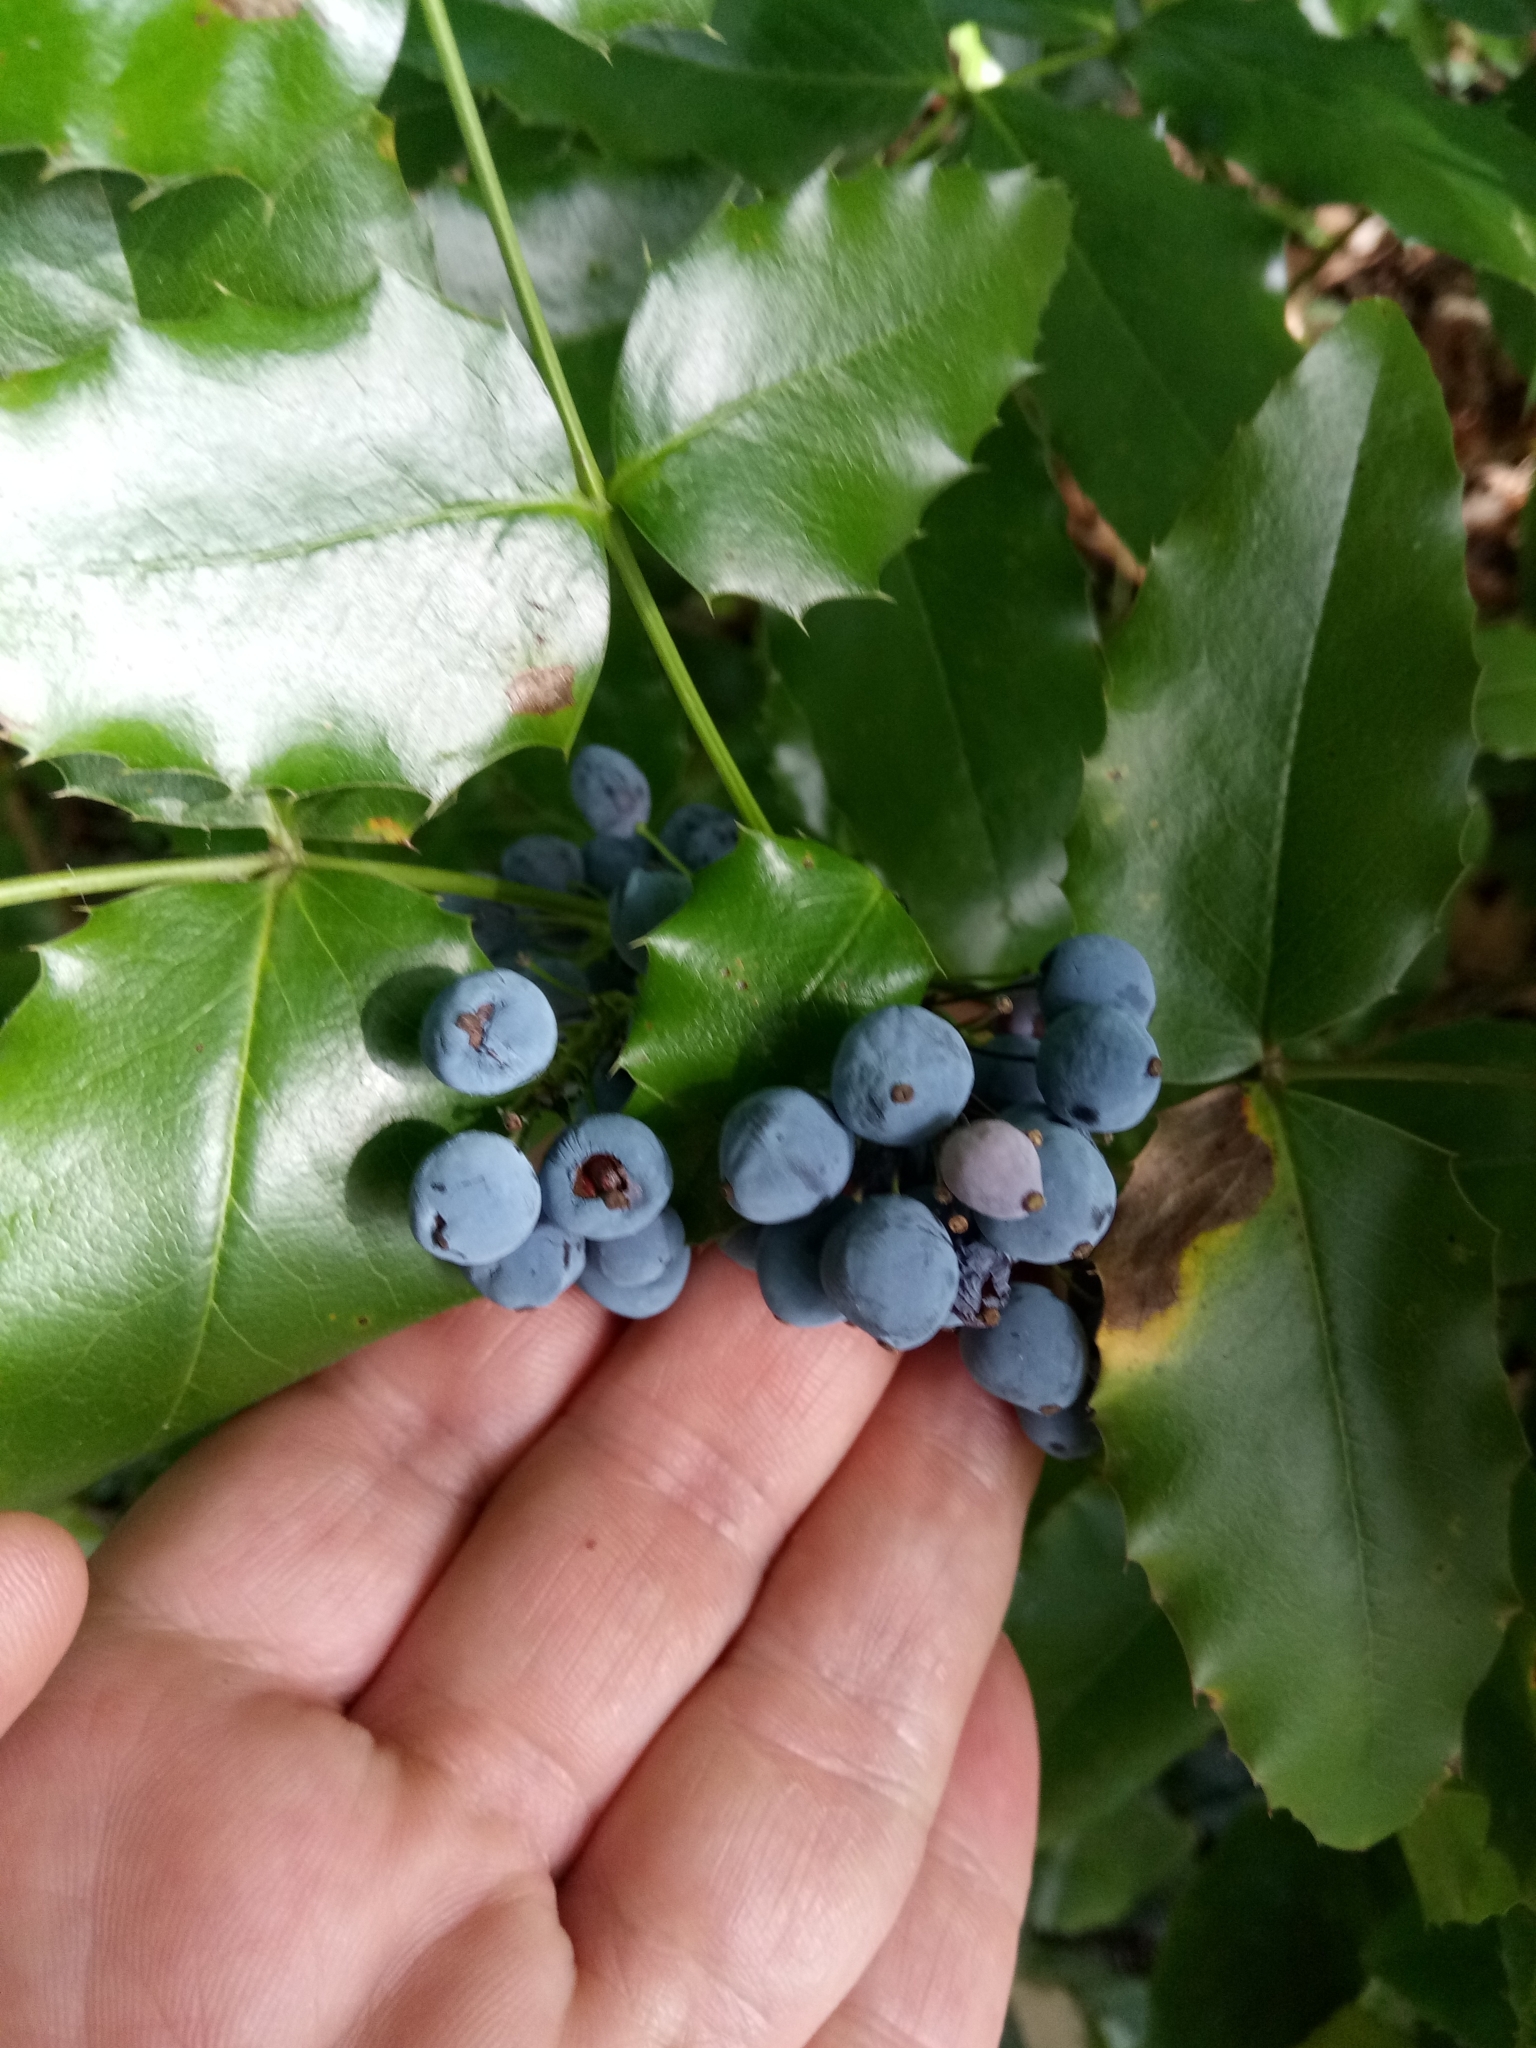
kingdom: Plantae
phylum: Tracheophyta
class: Magnoliopsida
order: Ranunculales
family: Berberidaceae
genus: Mahonia
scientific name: Mahonia aquifolium
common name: Oregon-grape
